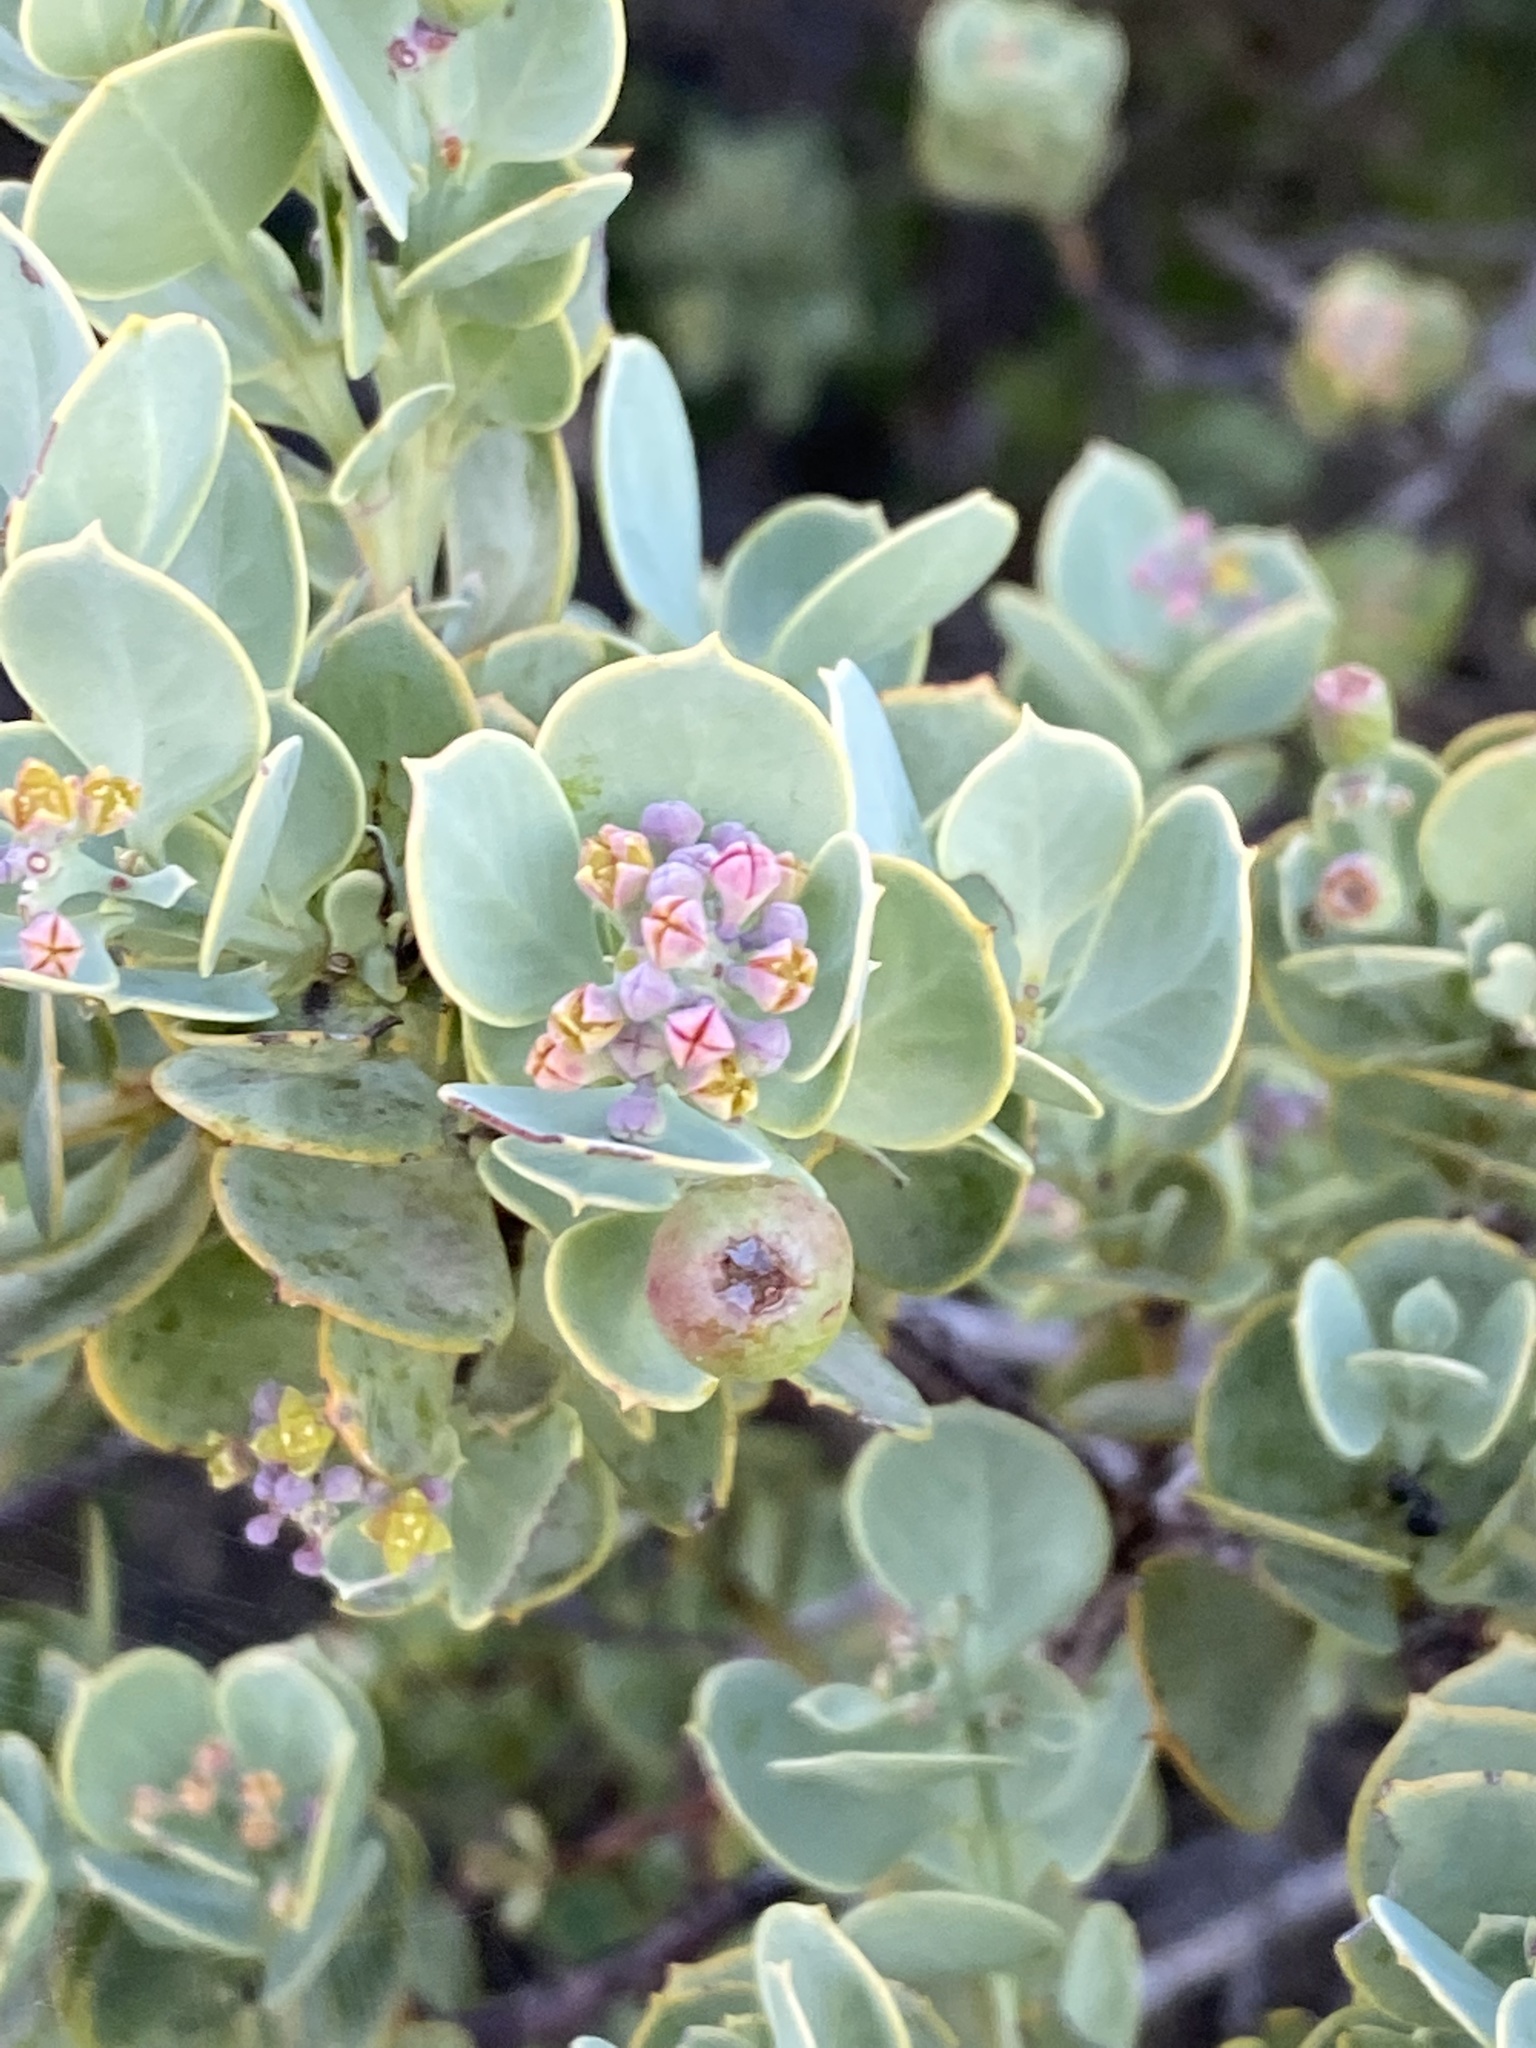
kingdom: Plantae
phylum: Tracheophyta
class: Magnoliopsida
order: Santalales
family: Santalaceae
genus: Osyris
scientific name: Osyris compressa
